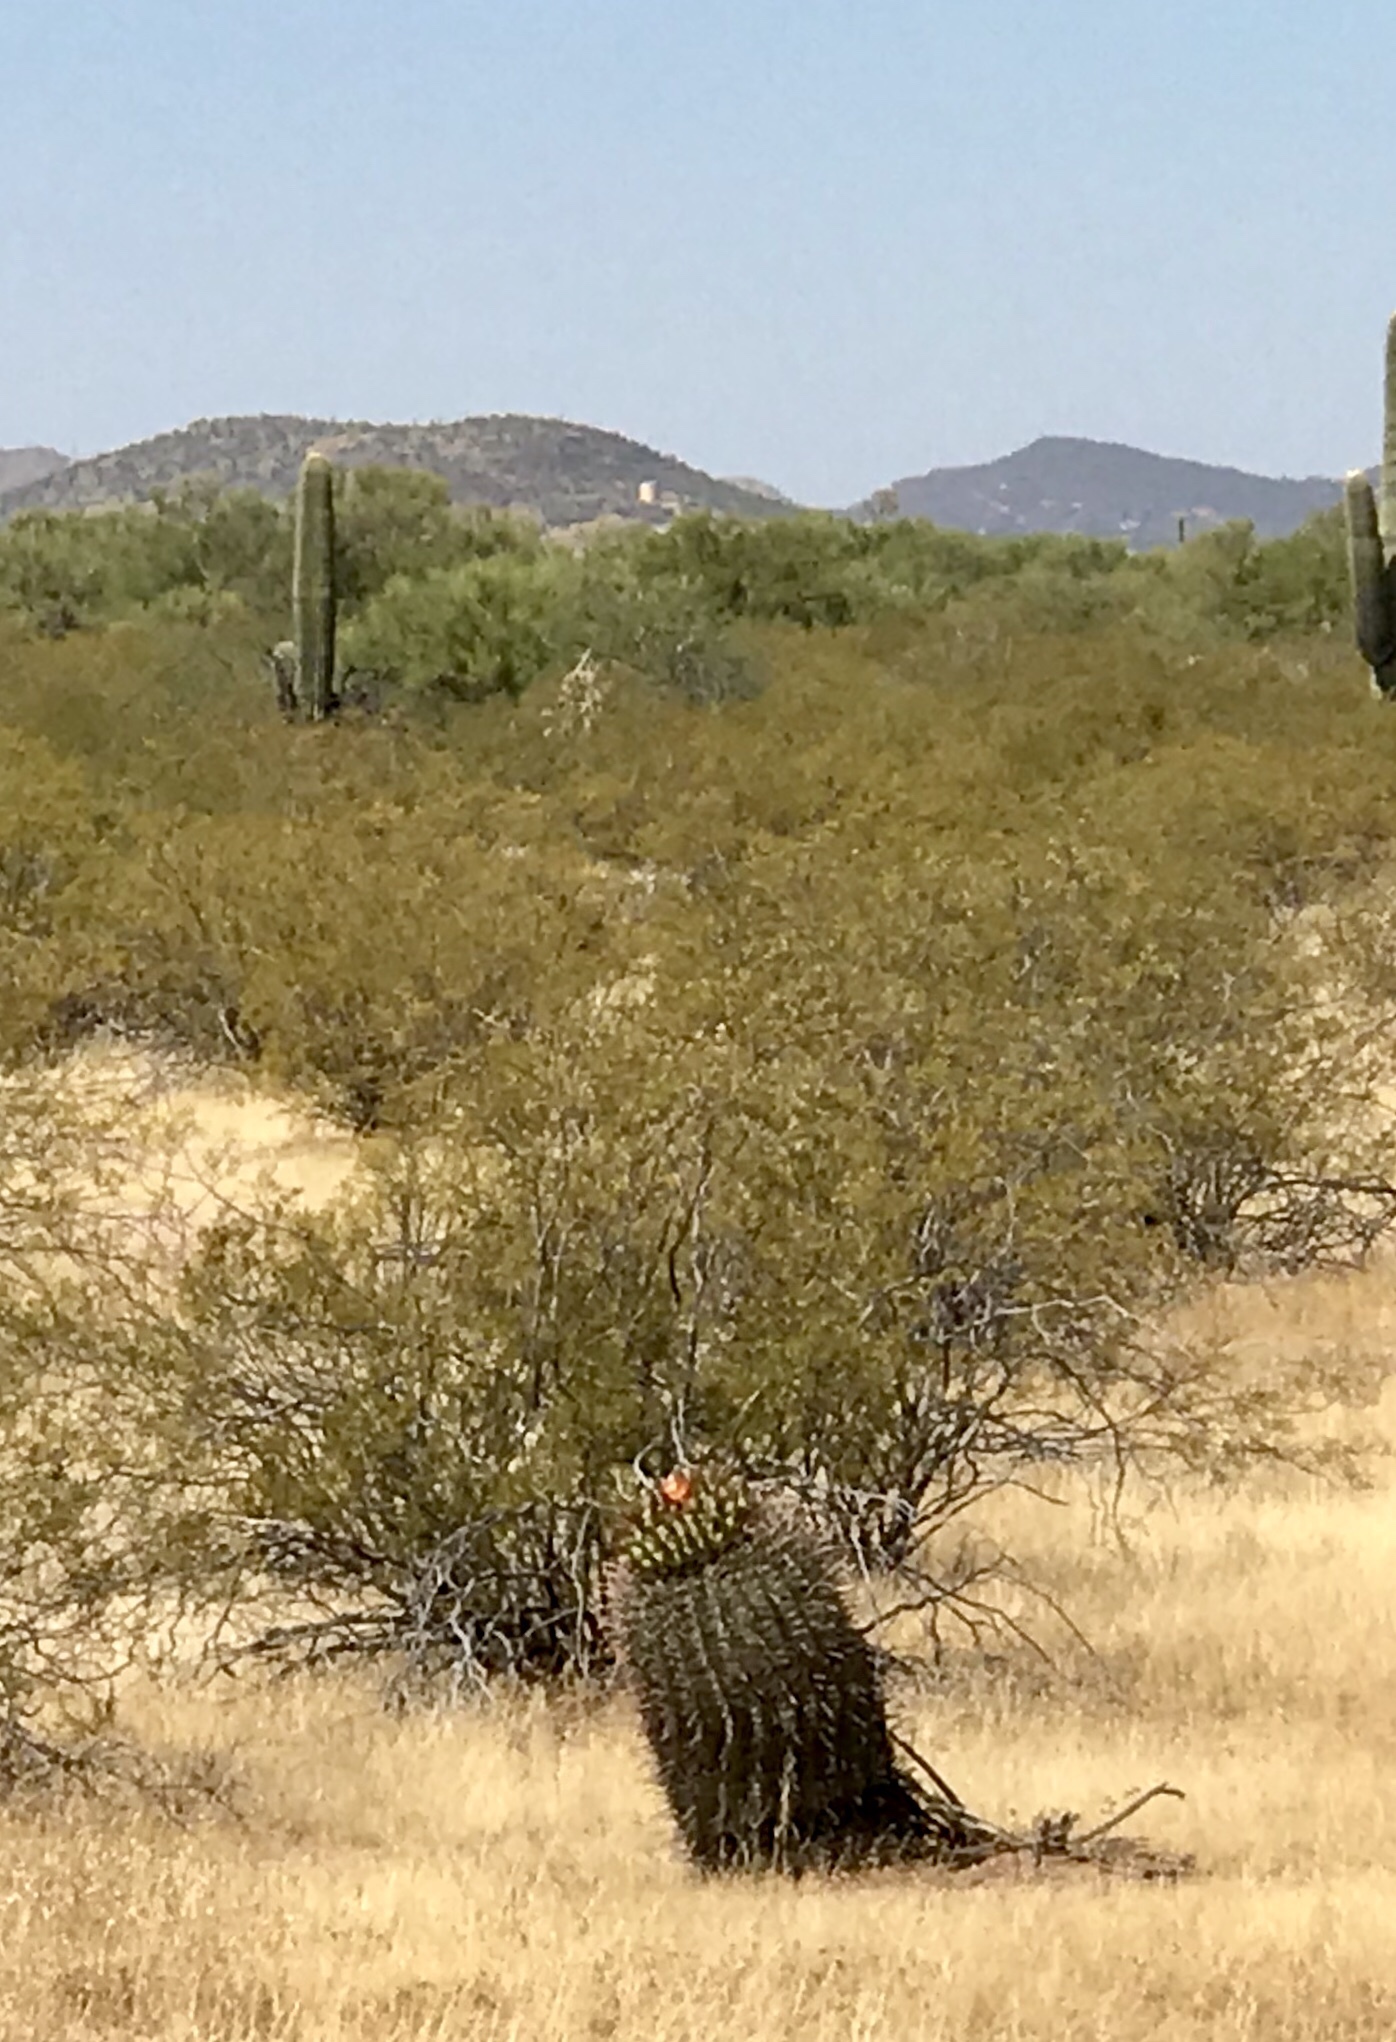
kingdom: Plantae
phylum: Tracheophyta
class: Magnoliopsida
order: Caryophyllales
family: Cactaceae
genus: Ferocactus
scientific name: Ferocactus wislizeni
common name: Candy barrel cactus
